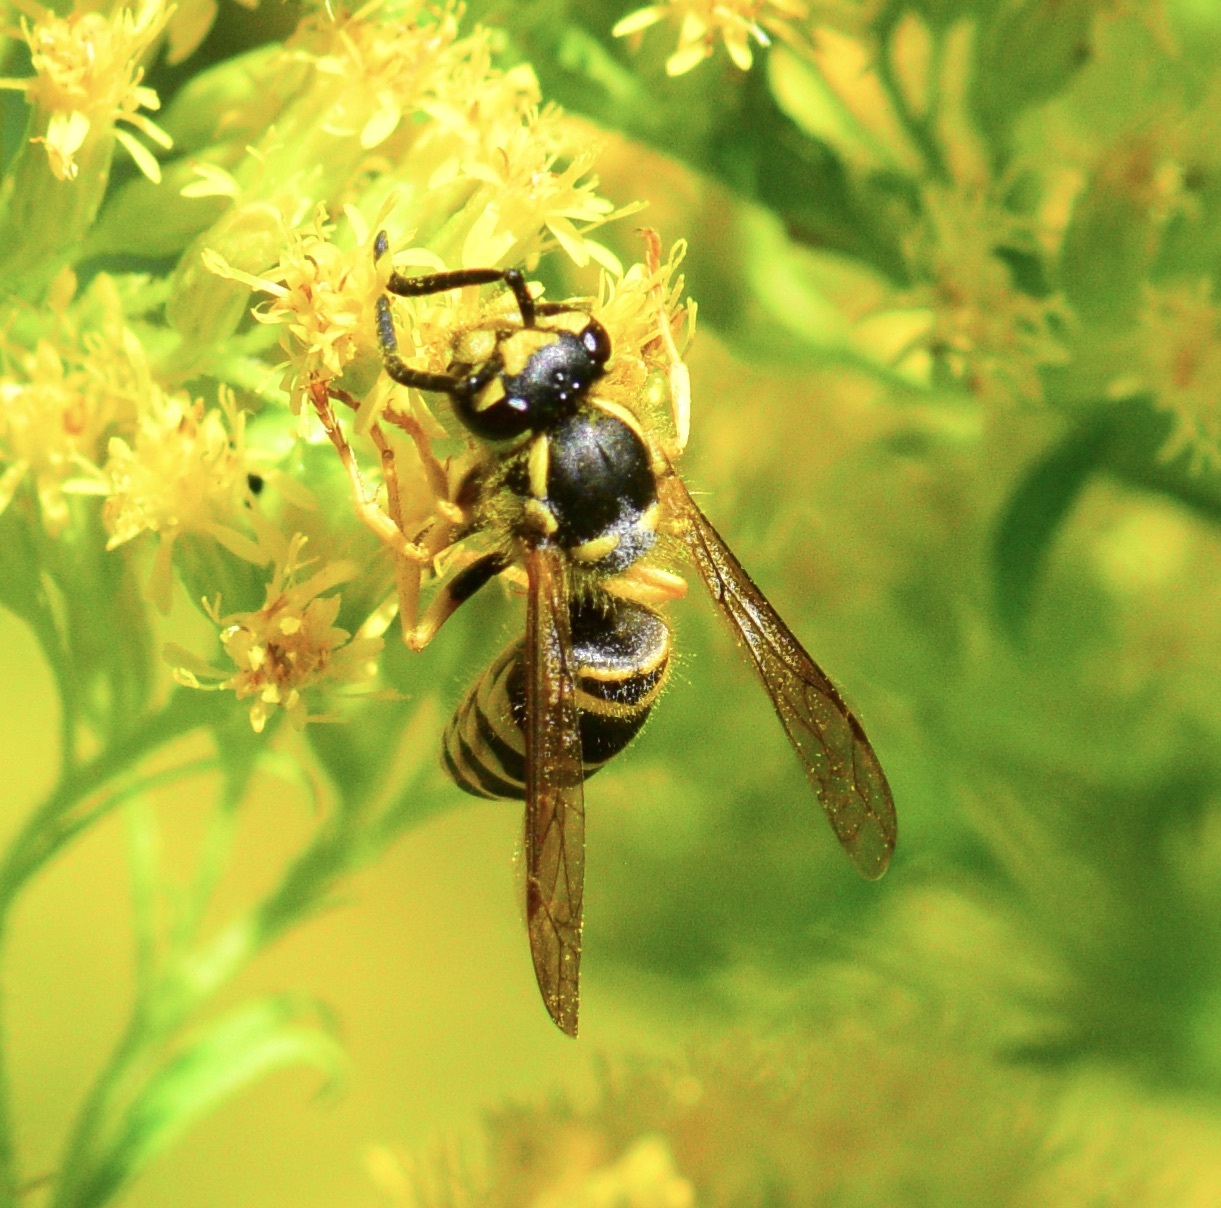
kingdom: Animalia
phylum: Arthropoda
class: Insecta
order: Hymenoptera
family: Vespidae
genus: Vespula
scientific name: Vespula maculifrons
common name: Eastern yellowjacket
